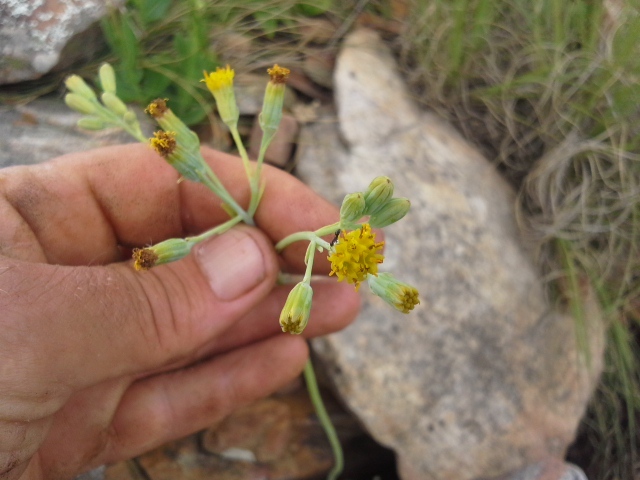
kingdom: Plantae
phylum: Tracheophyta
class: Magnoliopsida
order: Asterales
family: Asteraceae
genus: Senecio
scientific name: Senecio oxyriifolius
